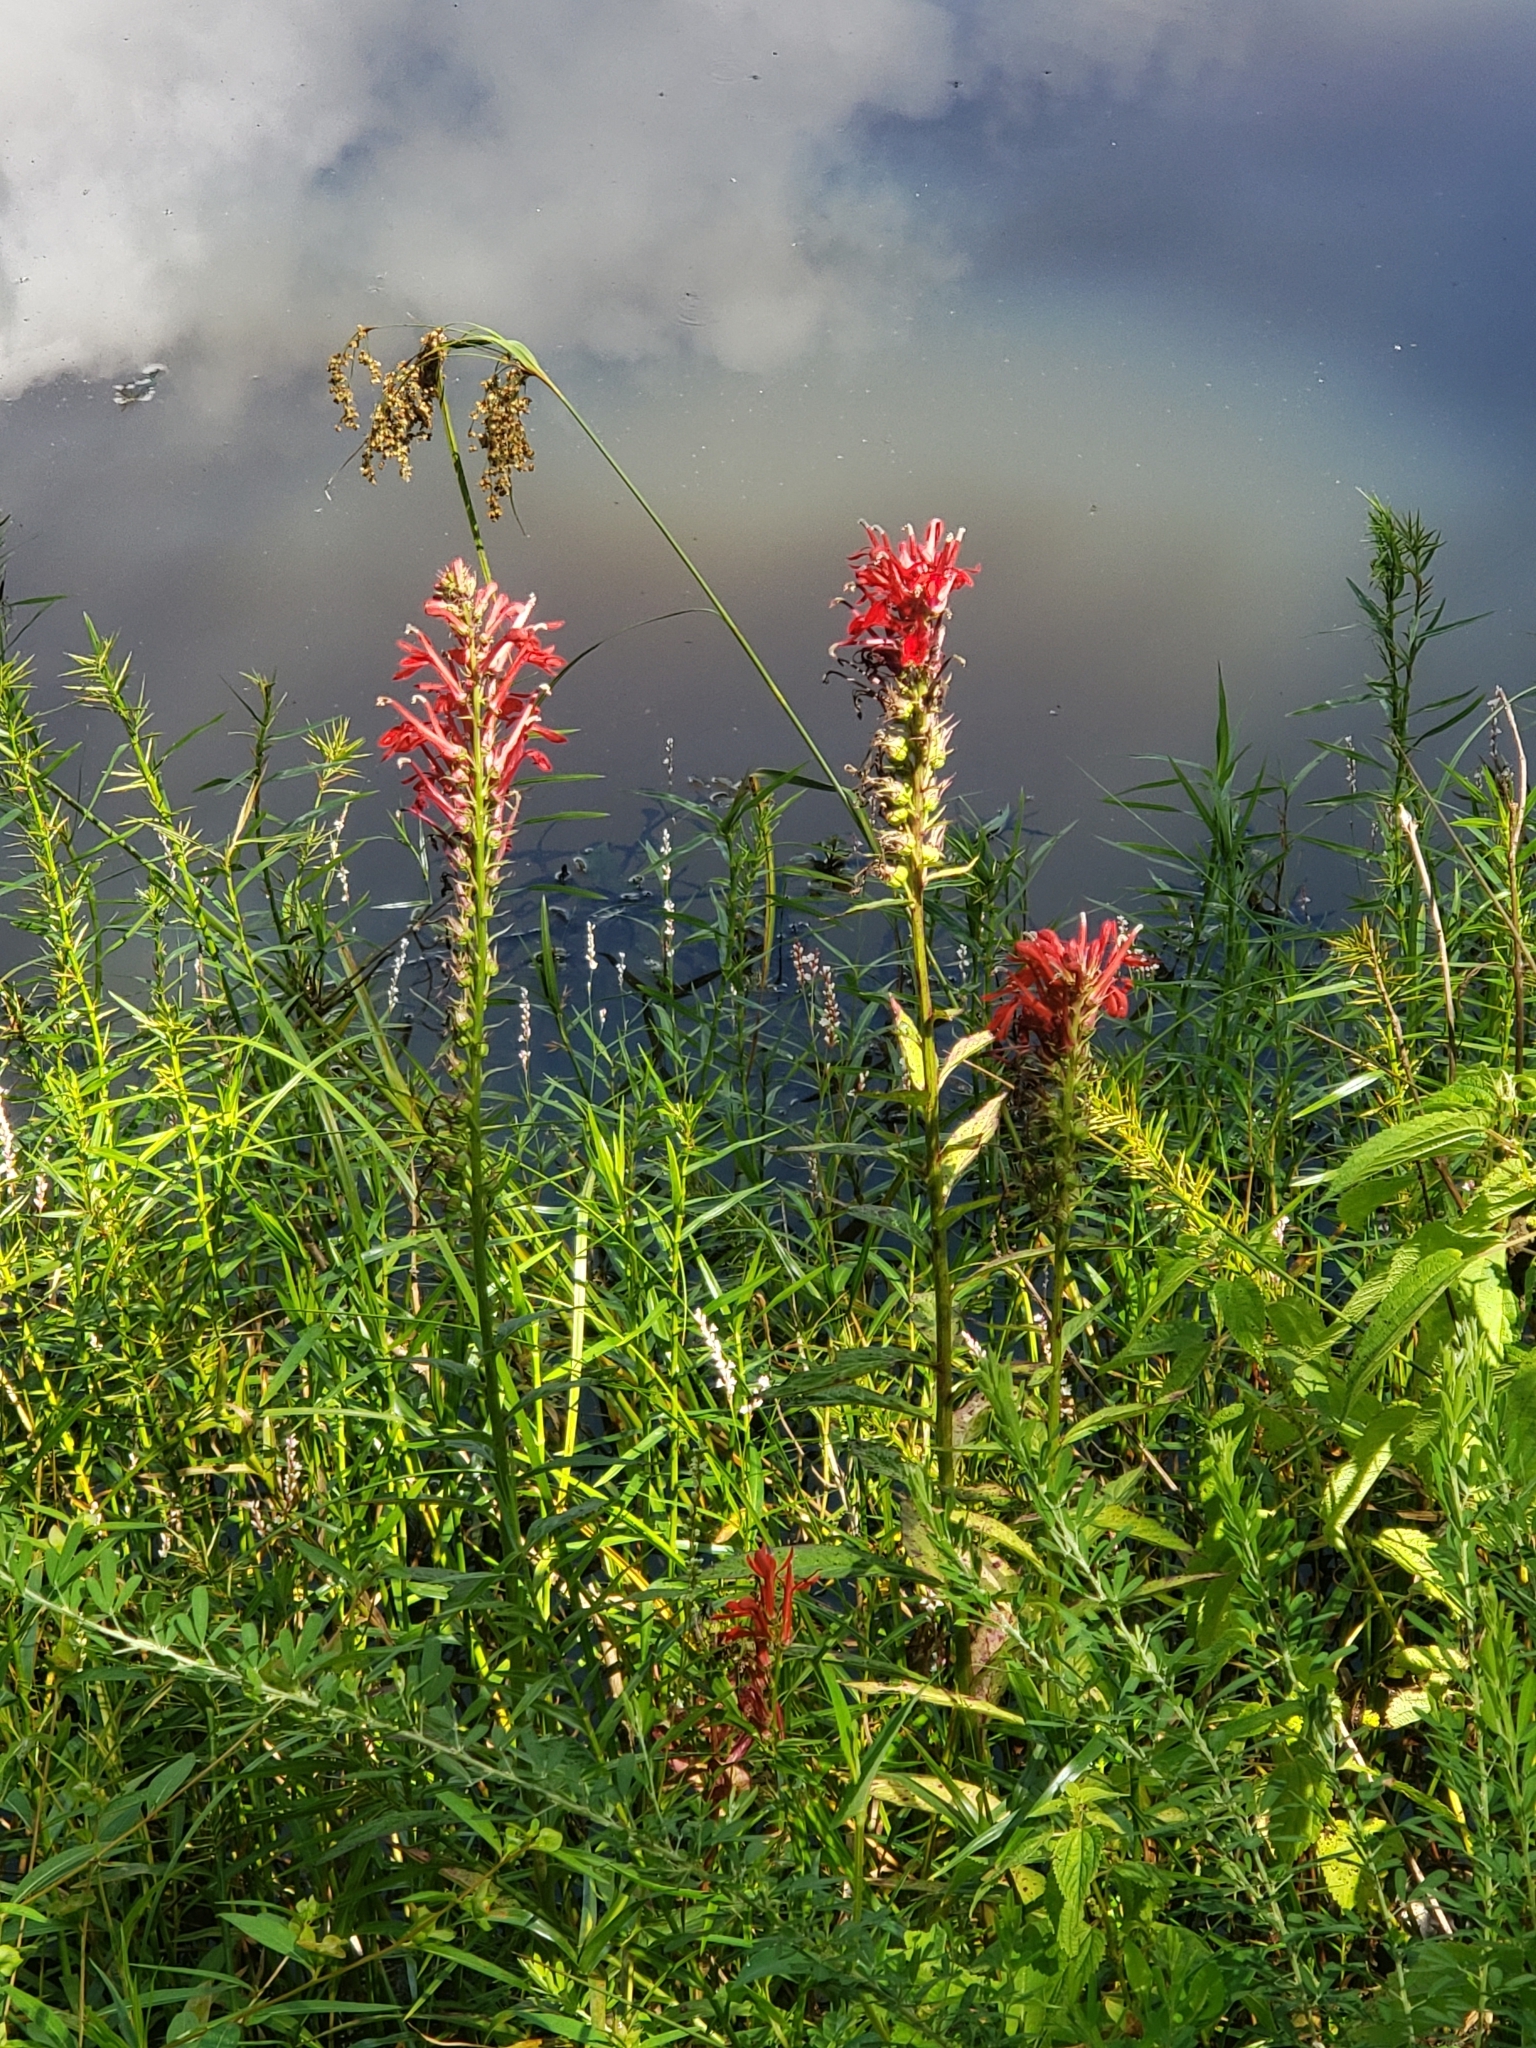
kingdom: Plantae
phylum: Tracheophyta
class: Magnoliopsida
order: Asterales
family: Campanulaceae
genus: Lobelia
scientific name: Lobelia cardinalis
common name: Cardinal flower
